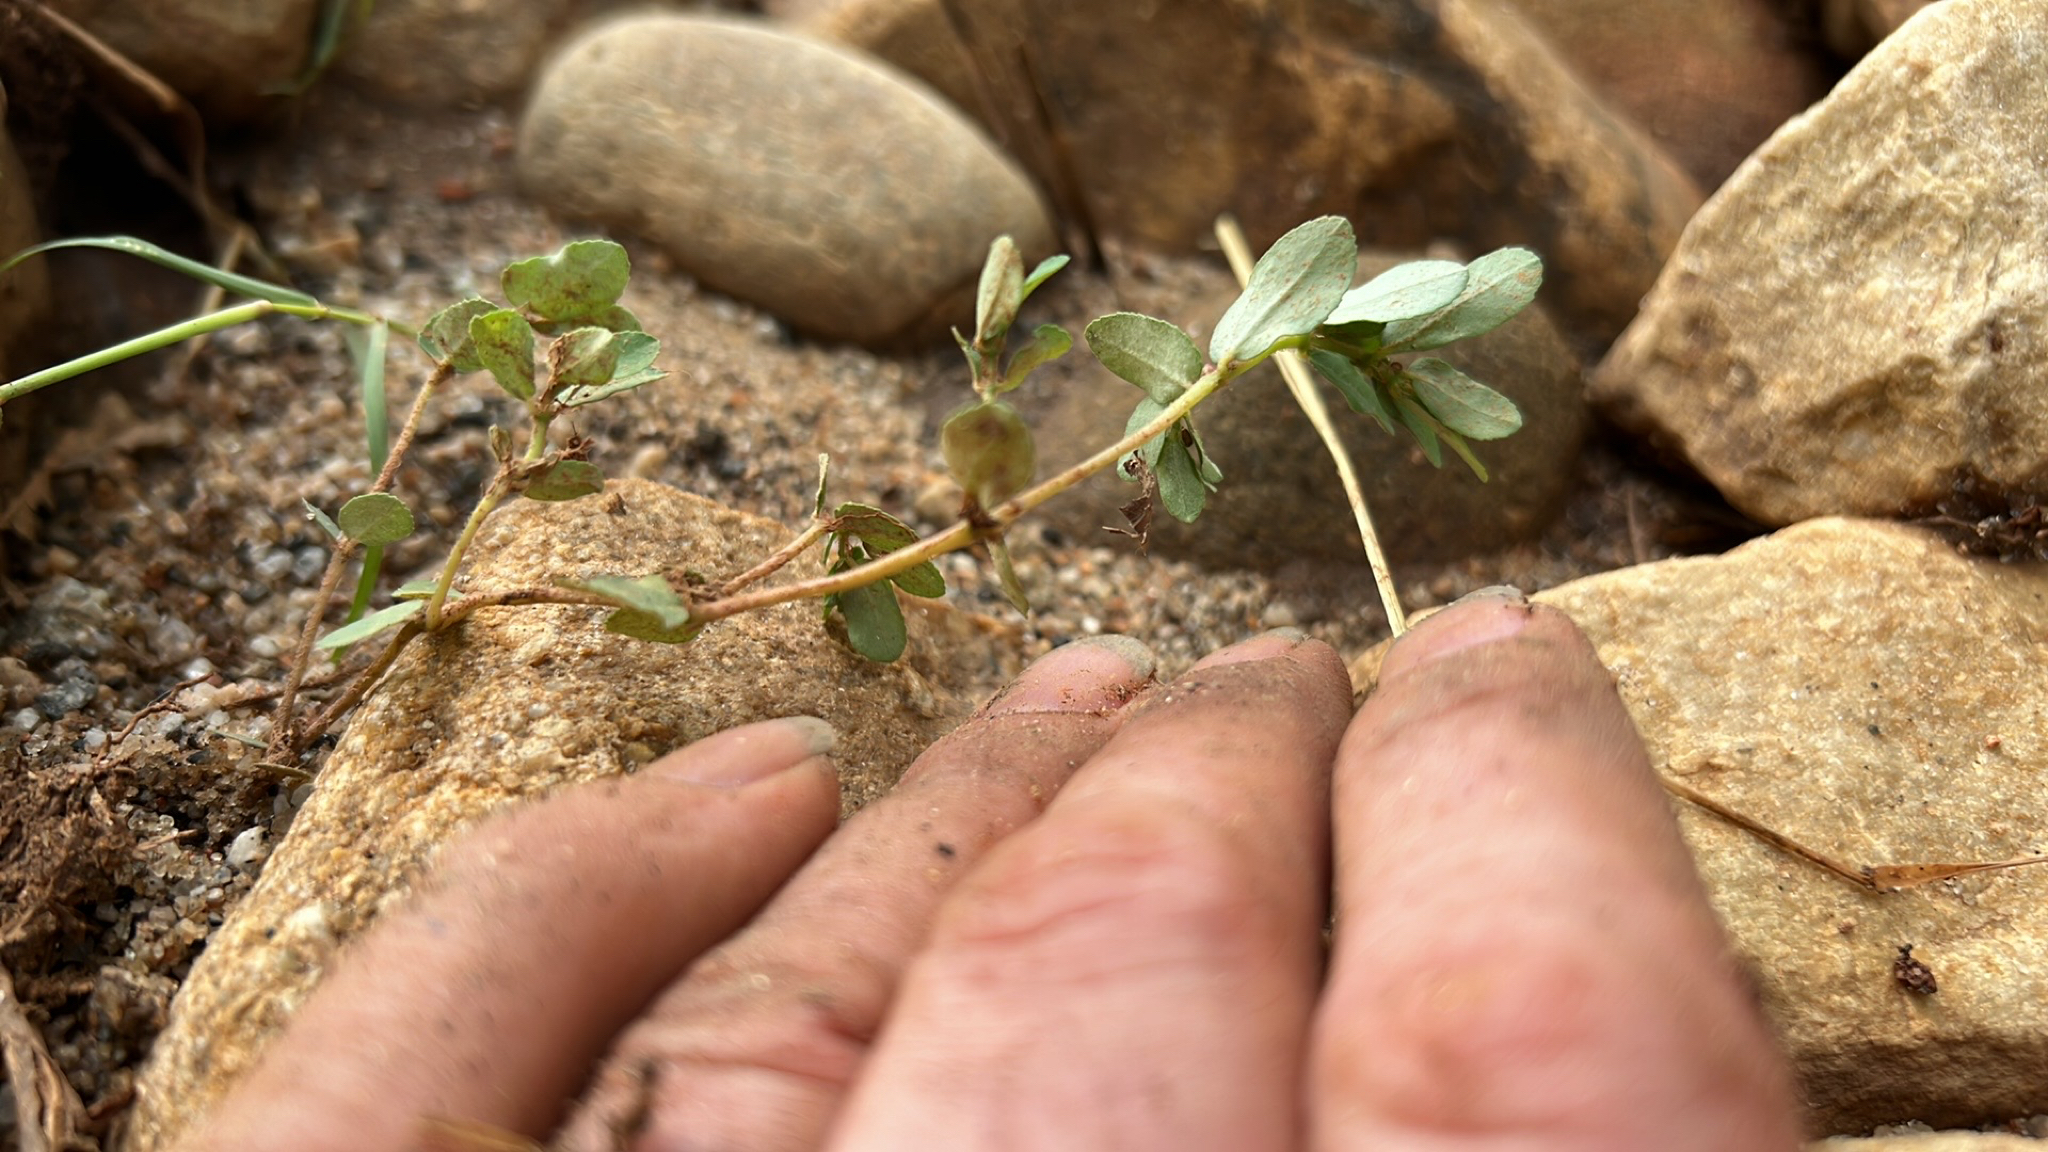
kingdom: Plantae
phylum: Tracheophyta
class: Magnoliopsida
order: Malpighiales
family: Euphorbiaceae
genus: Euphorbia
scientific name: Euphorbia maculata
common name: Spotted spurge
